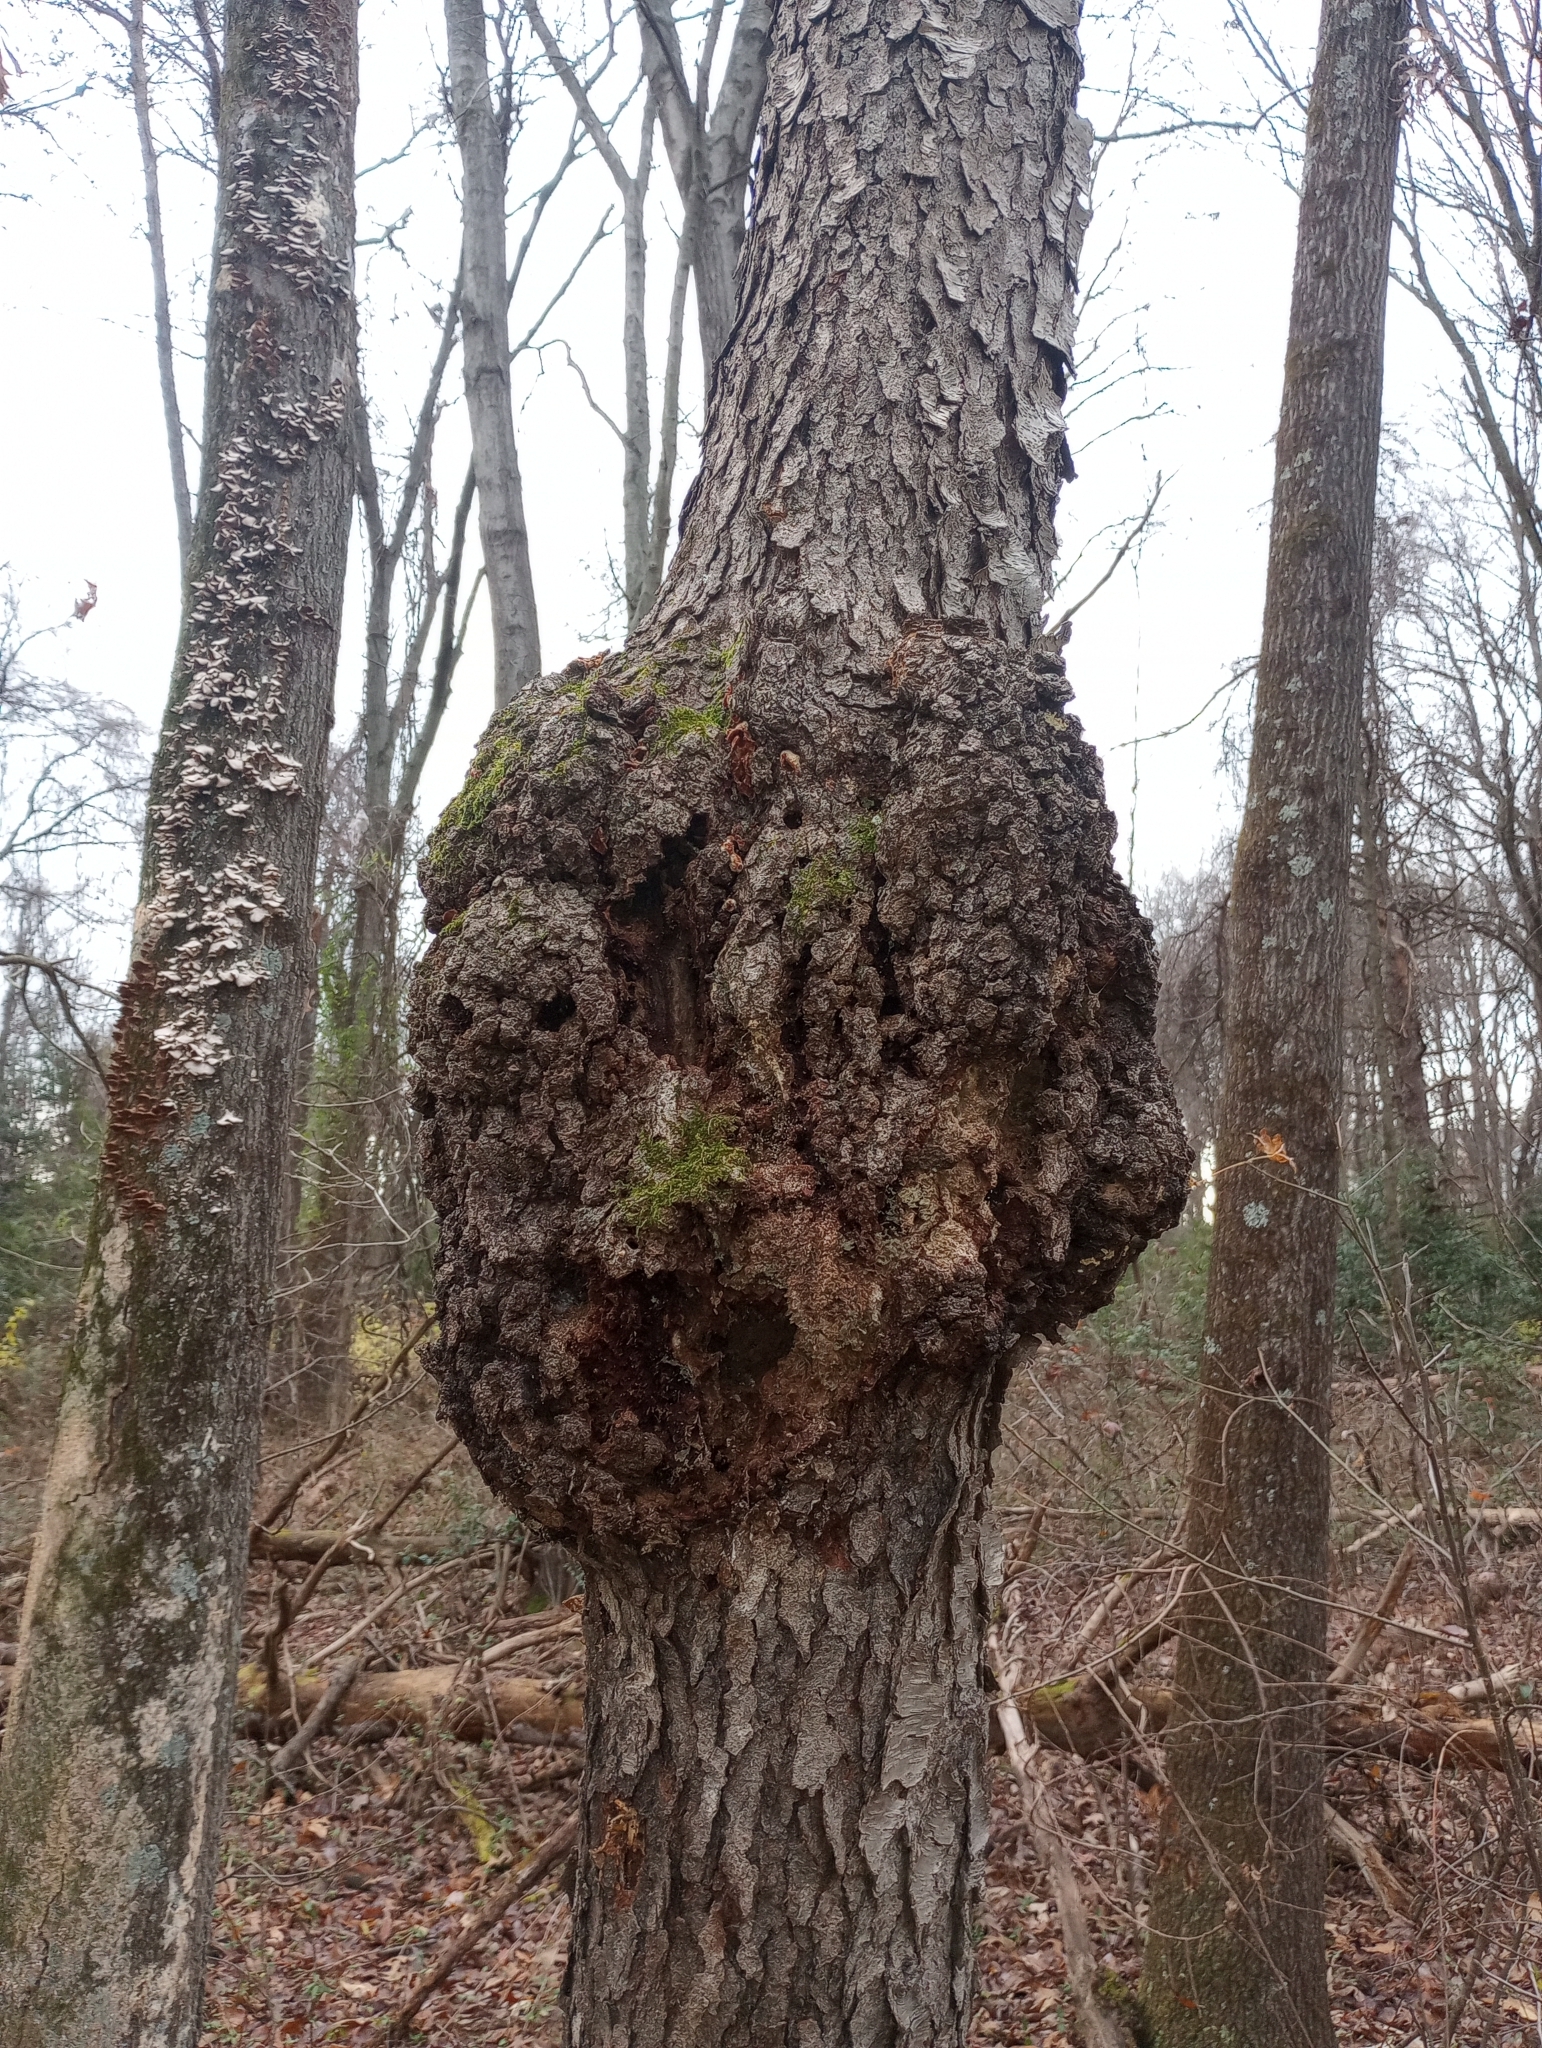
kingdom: Bacteria
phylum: Proteobacteria
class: Alphaproteobacteria
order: Rhizobiales
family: Rhizobiaceae
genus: Rhizobium
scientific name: Rhizobium Agrobacterium radiobacter
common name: Bacterial crown gall
